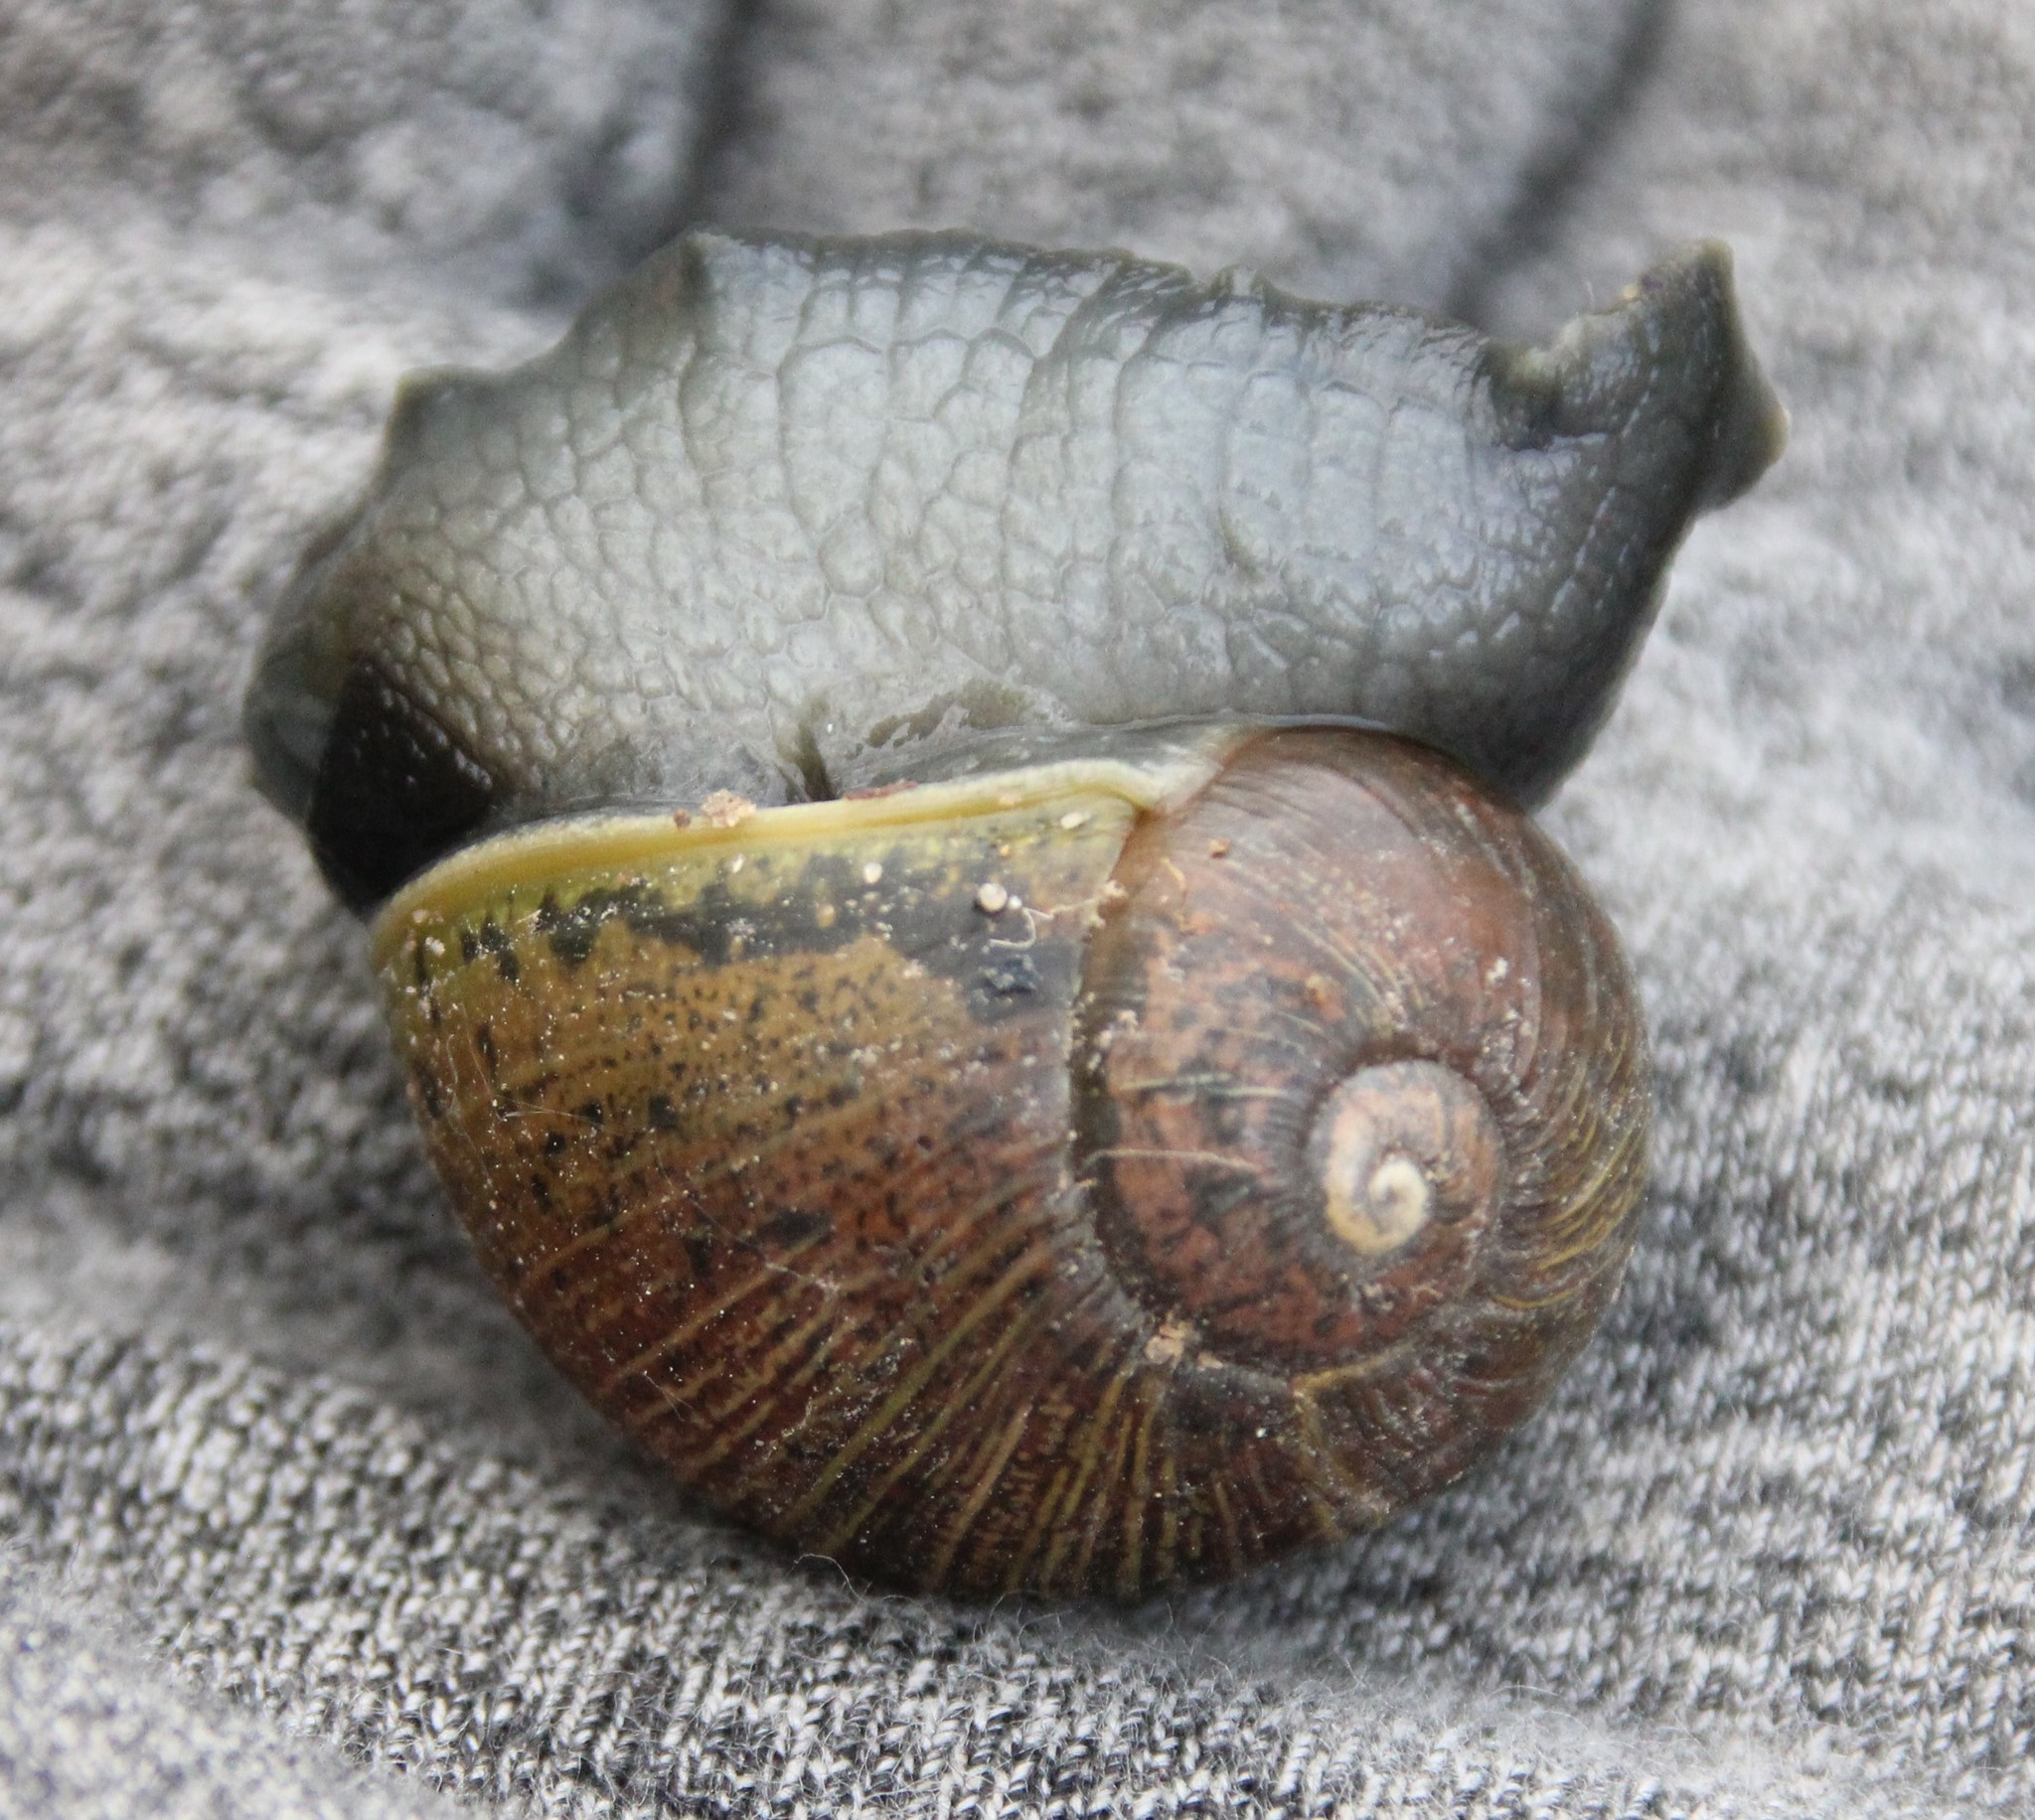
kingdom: Animalia
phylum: Mollusca
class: Gastropoda
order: Stylommatophora
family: Helicidae
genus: Cantareus
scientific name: Cantareus apertus
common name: Green gardensnail
